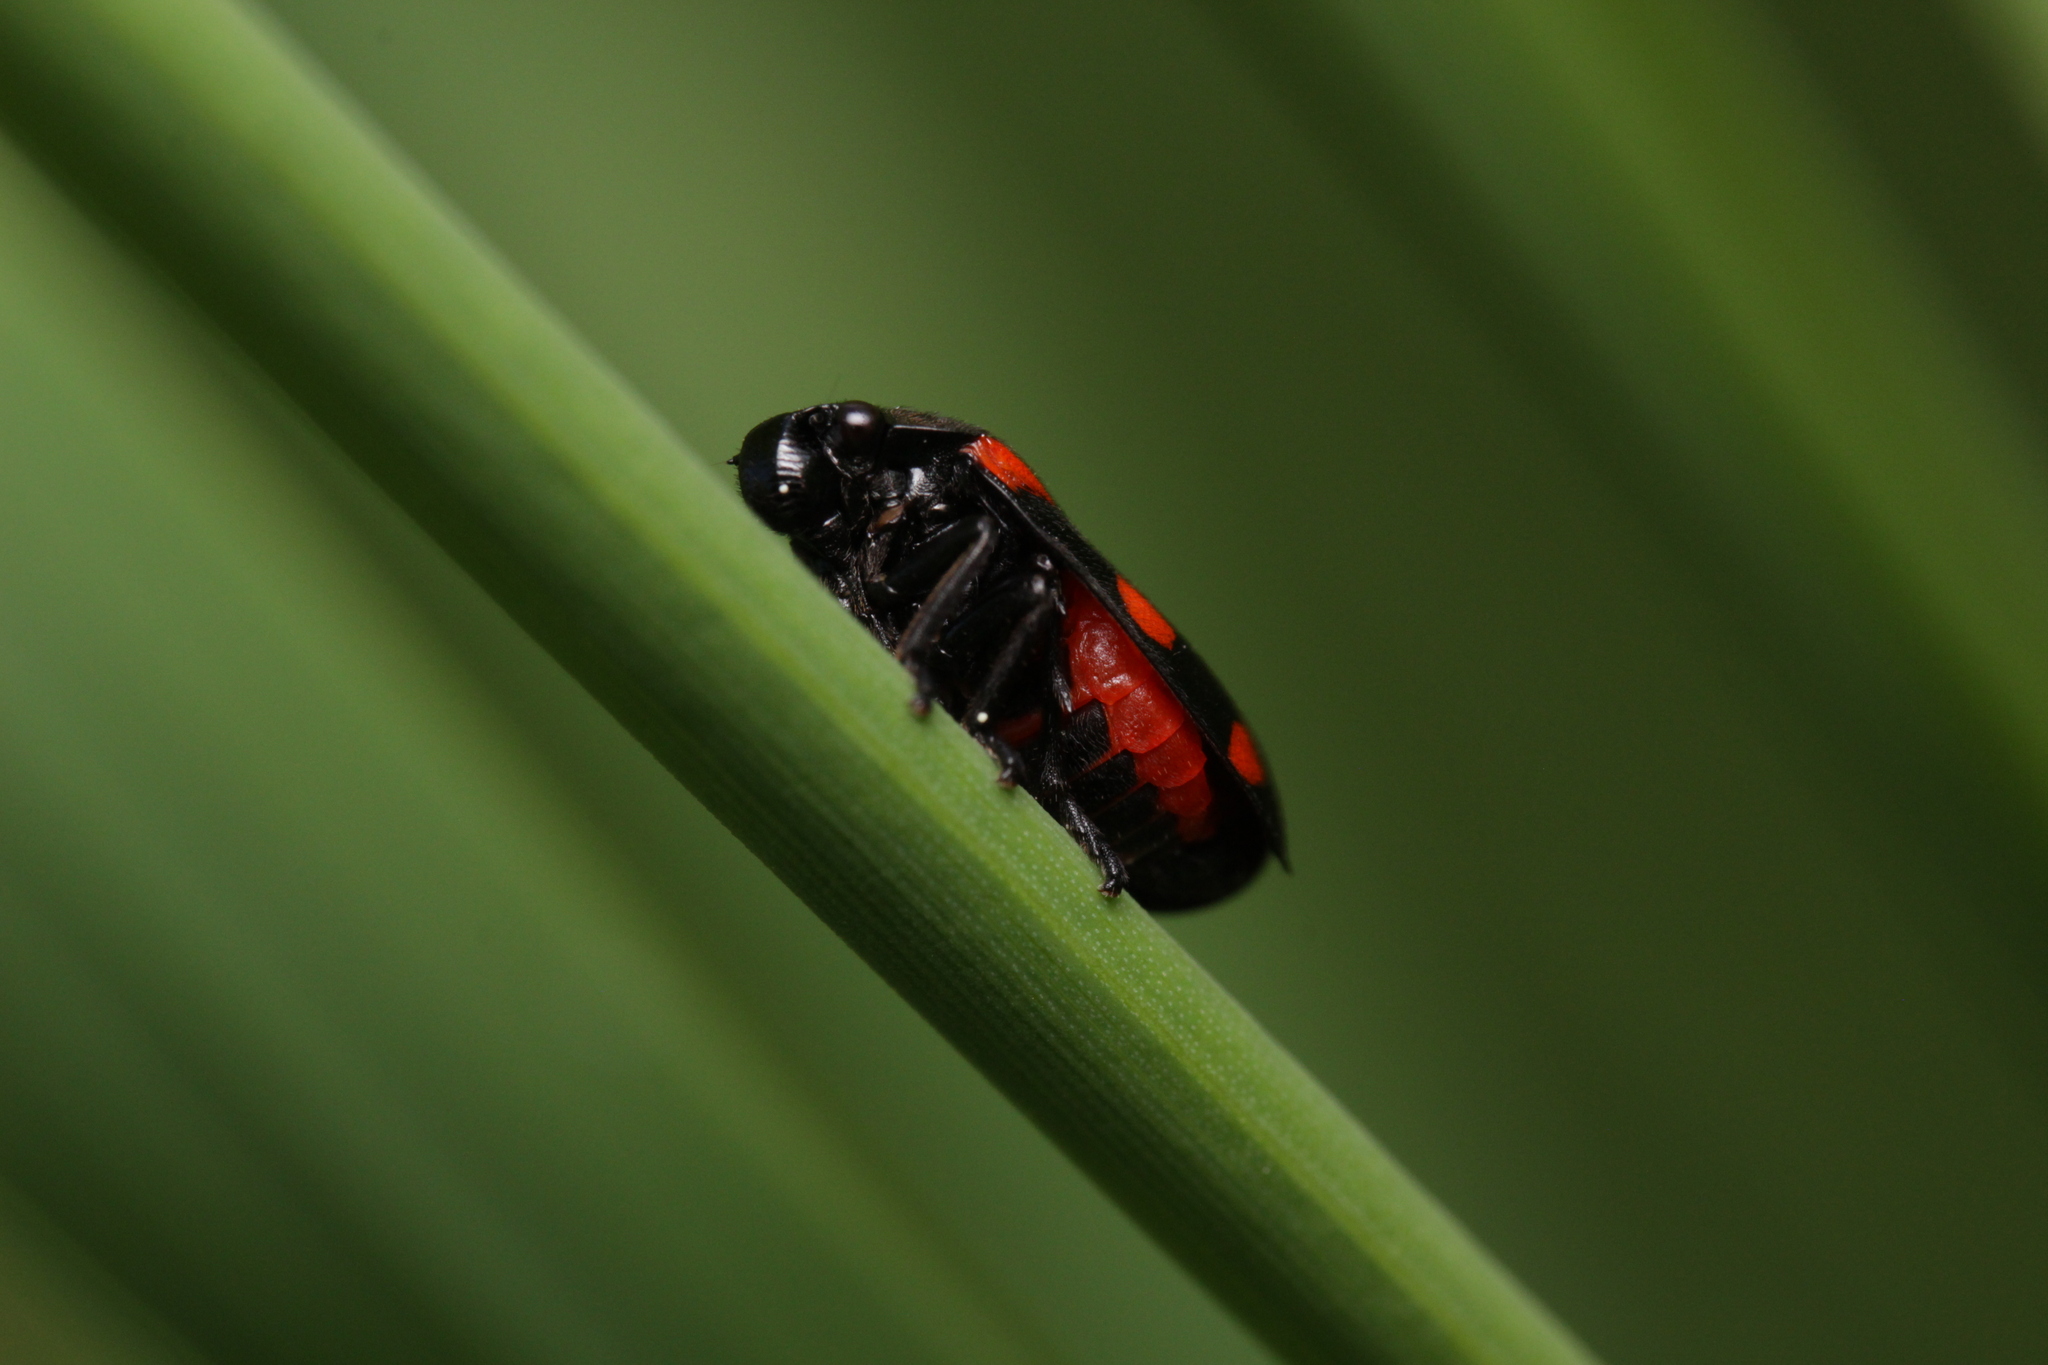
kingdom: Animalia
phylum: Arthropoda
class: Insecta
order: Hemiptera
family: Cercopidae
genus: Cercopis
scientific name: Cercopis arcuata
